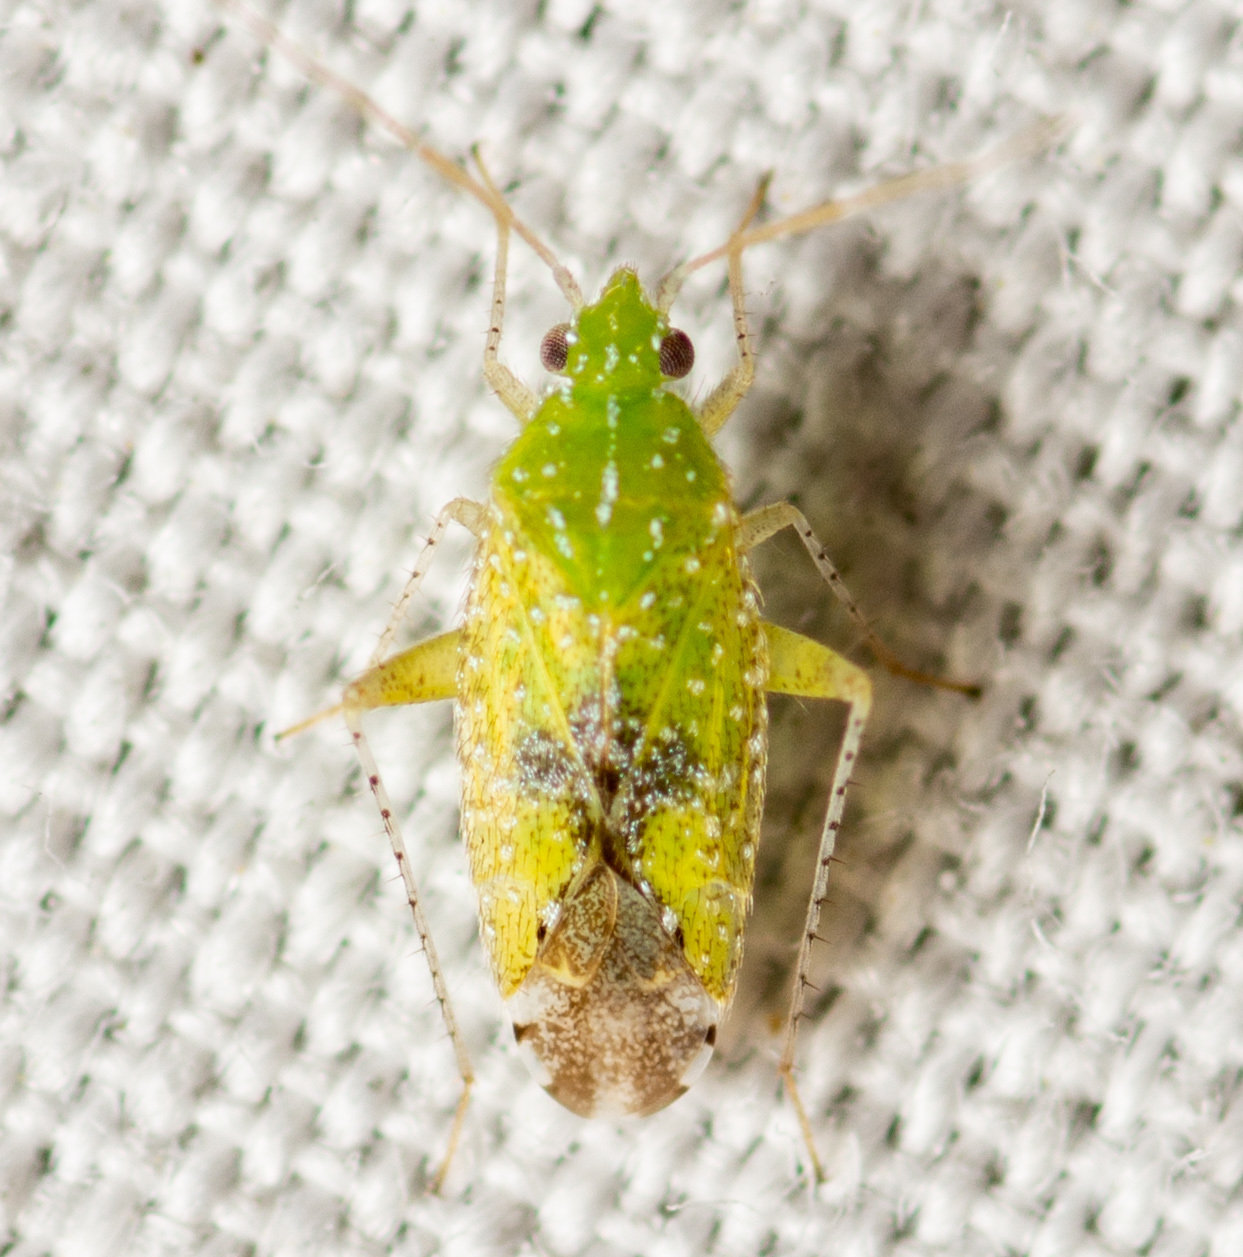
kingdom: Animalia
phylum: Arthropoda
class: Insecta
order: Hemiptera
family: Miridae
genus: Keltonia
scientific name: Keltonia tuckeri
